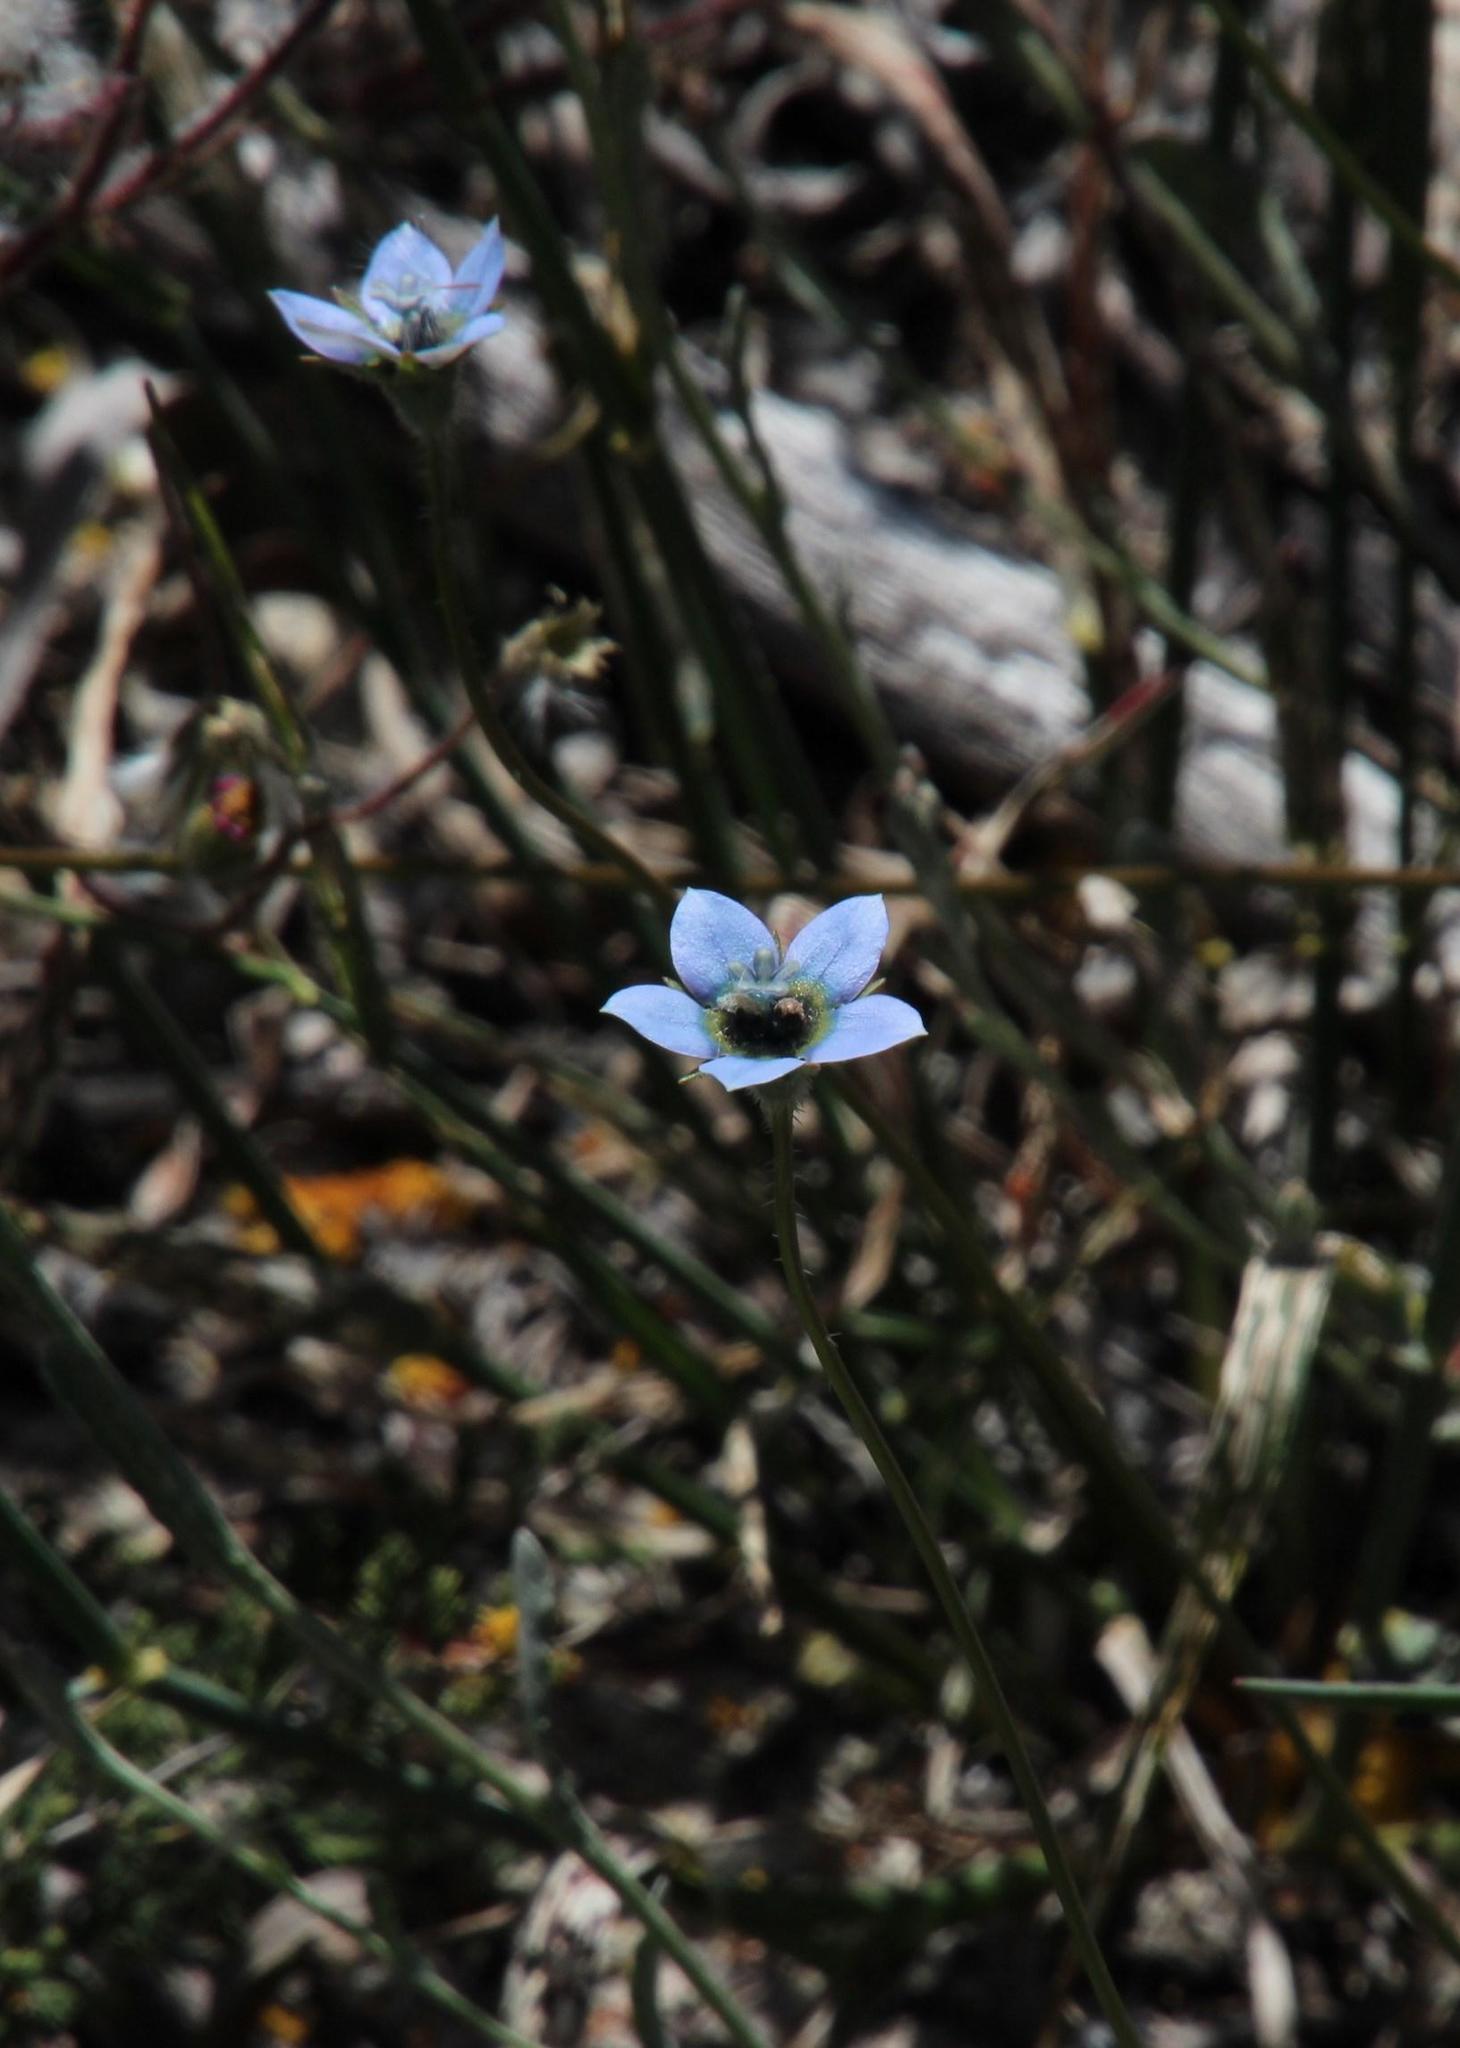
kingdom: Plantae
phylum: Tracheophyta
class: Magnoliopsida
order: Asterales
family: Campanulaceae
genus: Wahlenbergia
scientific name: Wahlenbergia capensis
